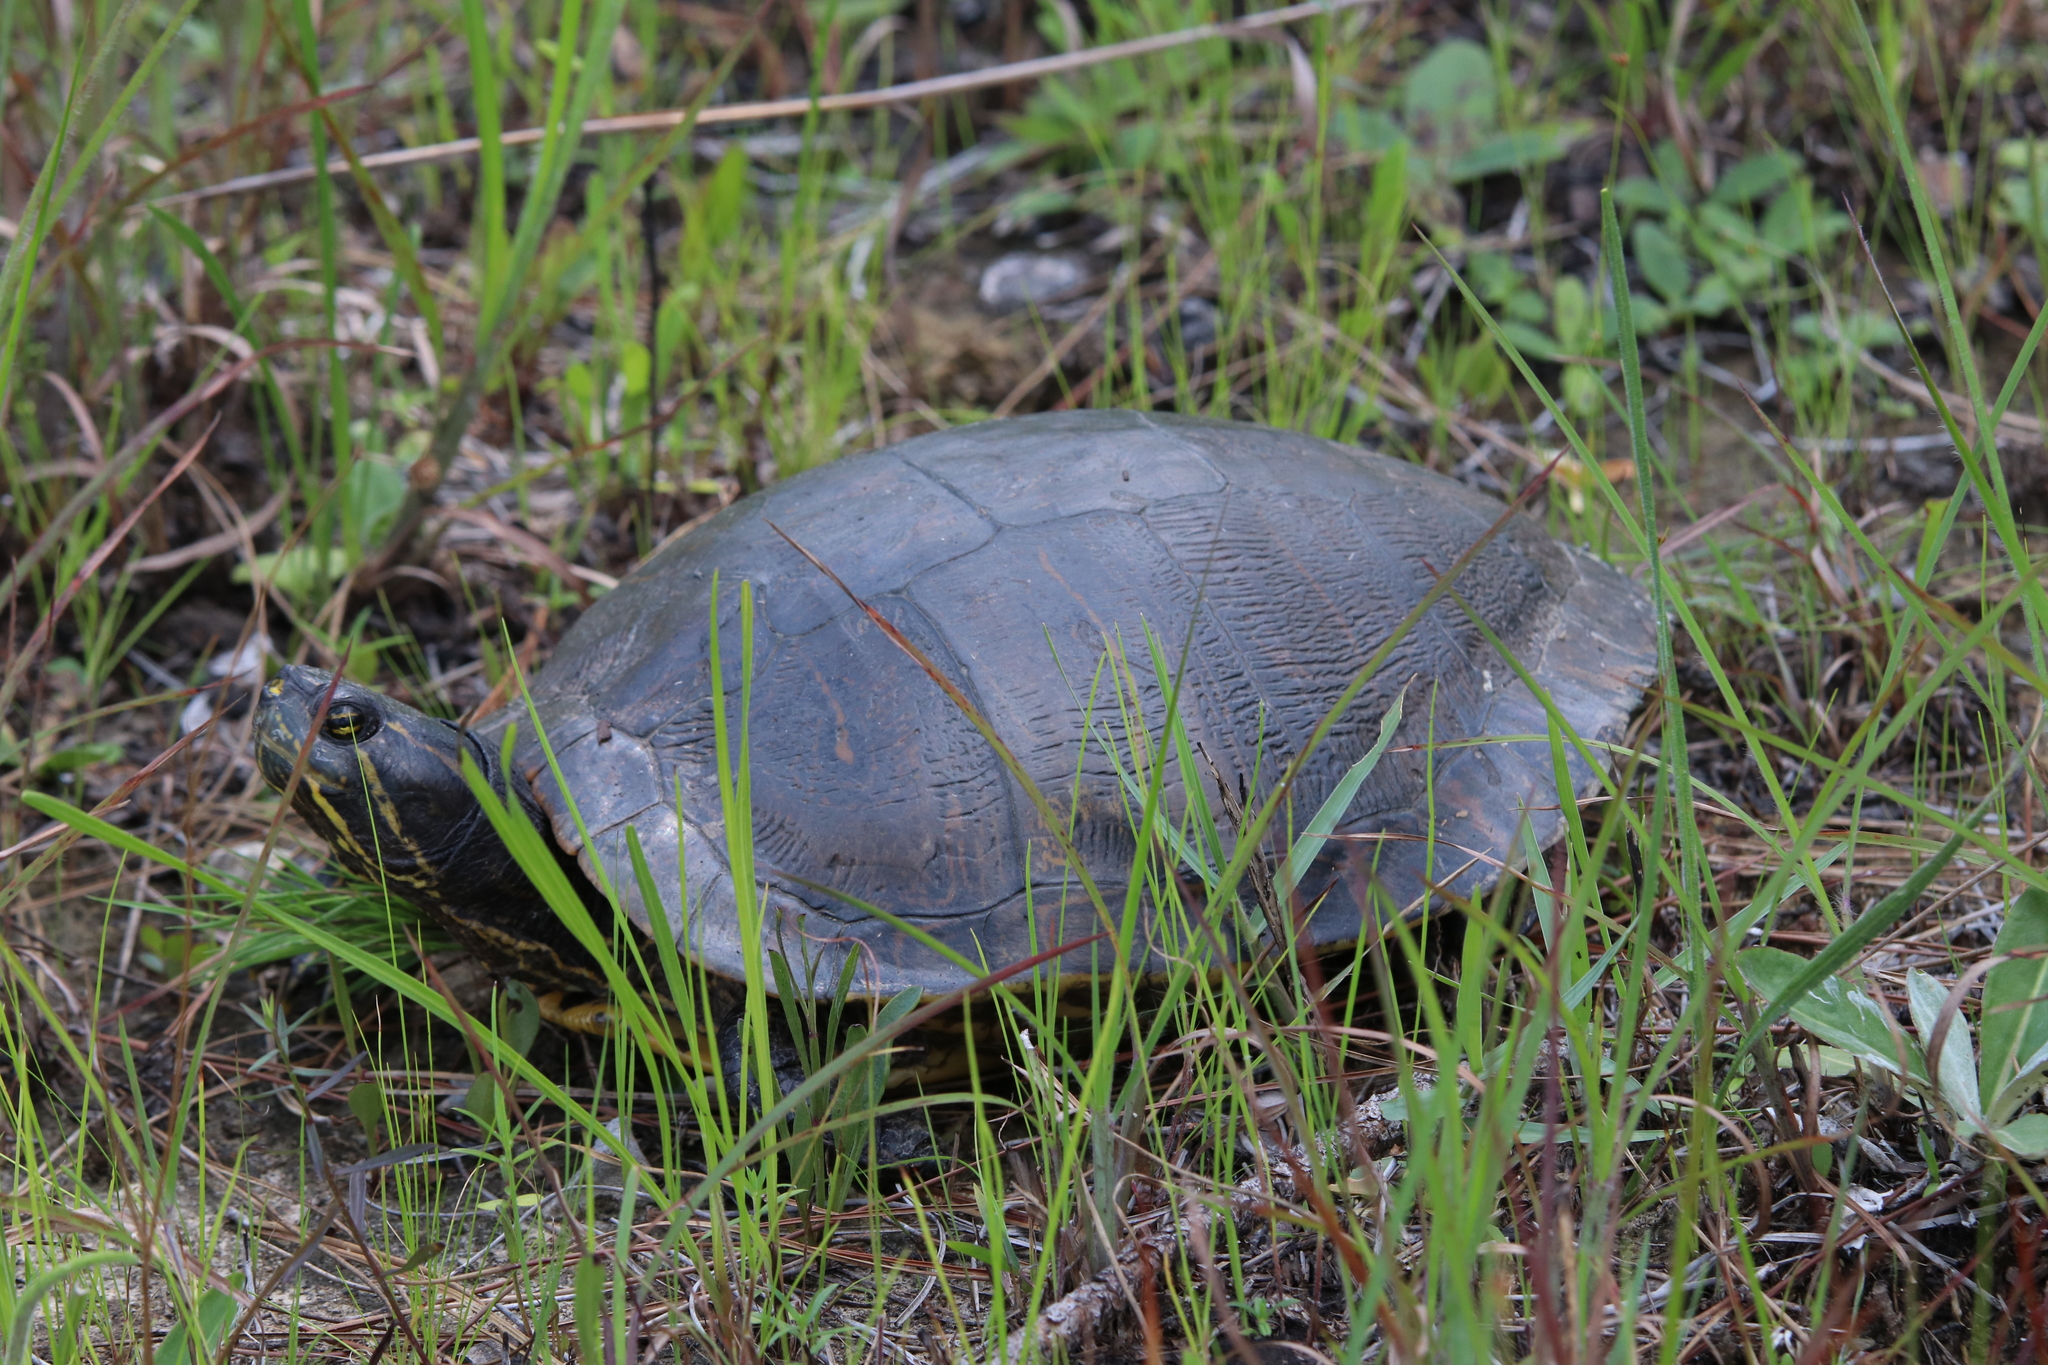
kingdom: Animalia
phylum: Chordata
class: Testudines
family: Emydidae
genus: Trachemys
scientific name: Trachemys scripta
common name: Slider
